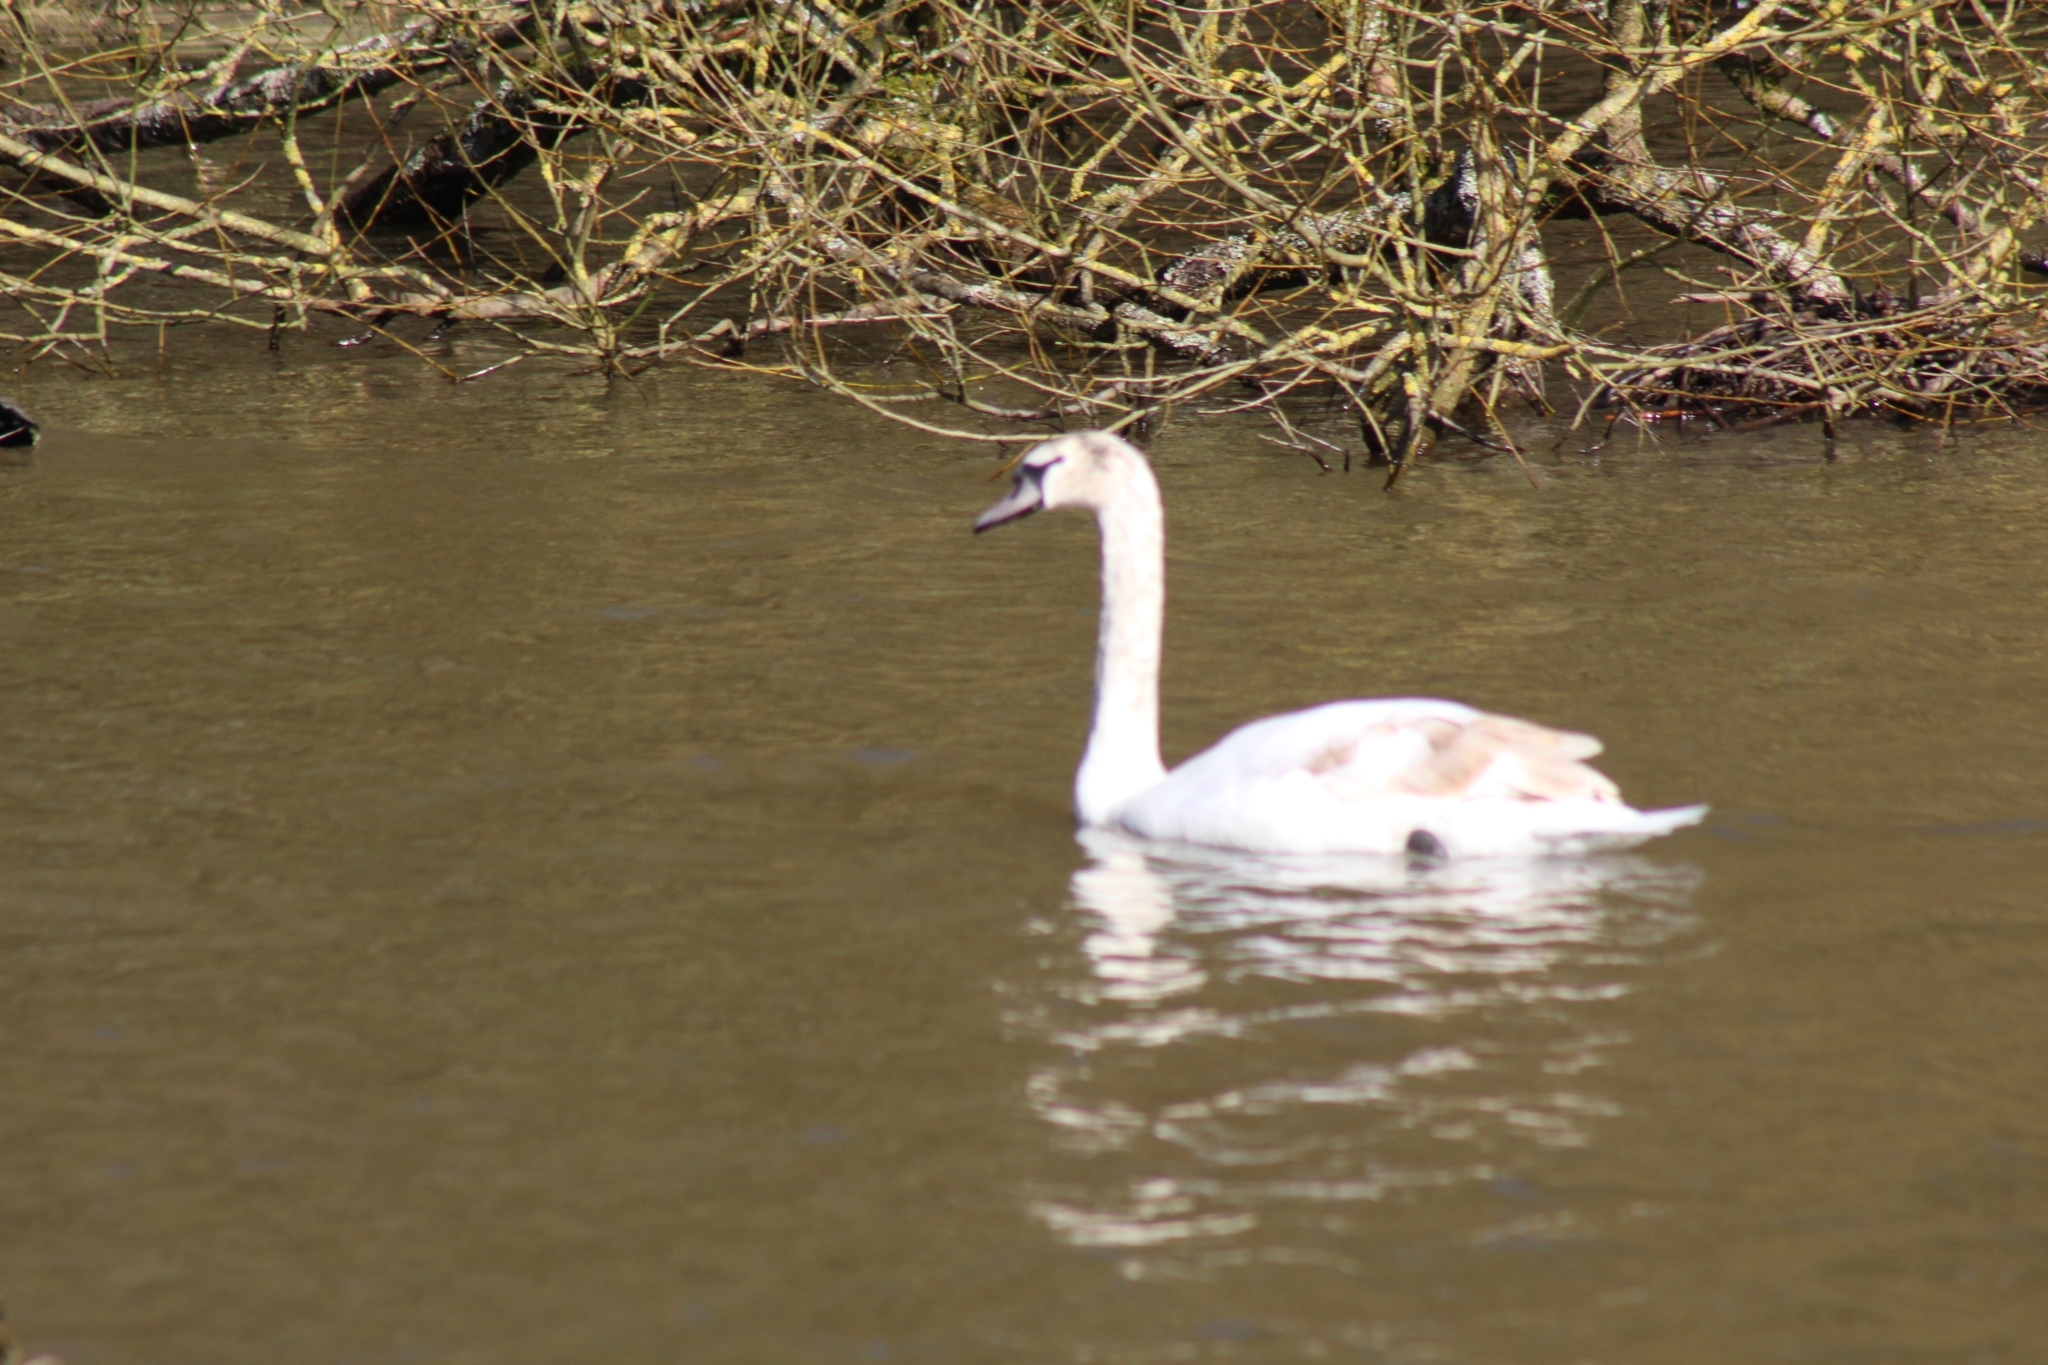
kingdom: Animalia
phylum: Chordata
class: Aves
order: Anseriformes
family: Anatidae
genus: Cygnus
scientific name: Cygnus olor
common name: Mute swan
